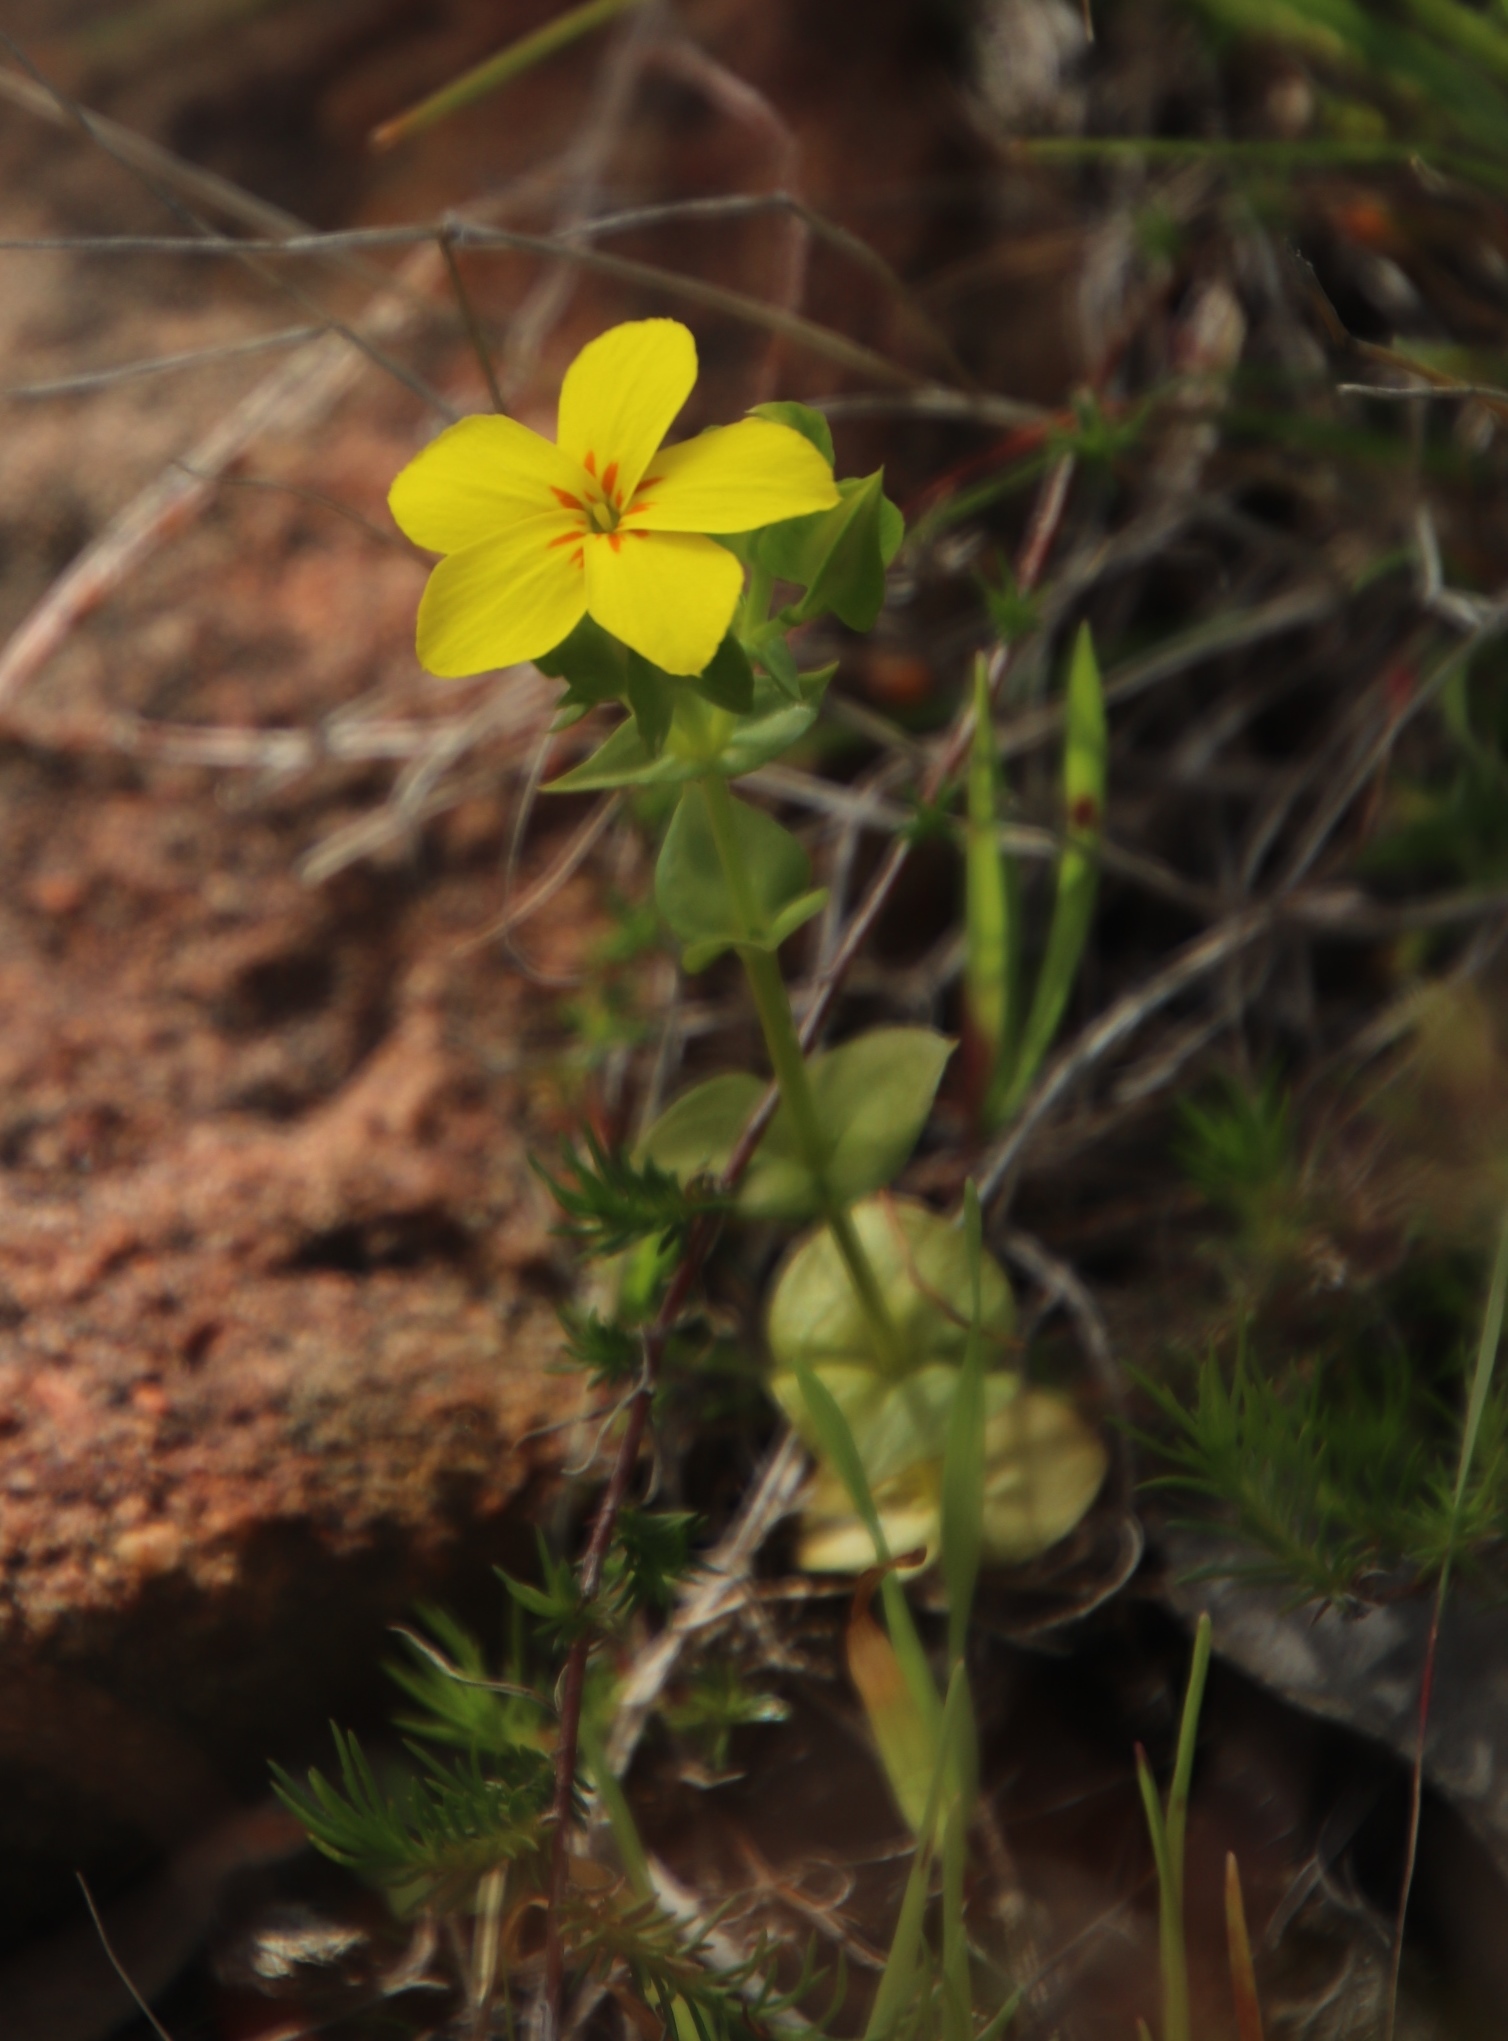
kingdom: Plantae
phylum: Tracheophyta
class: Magnoliopsida
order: Gentianales
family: Gentianaceae
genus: Sebaea
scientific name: Sebaea exacoides
